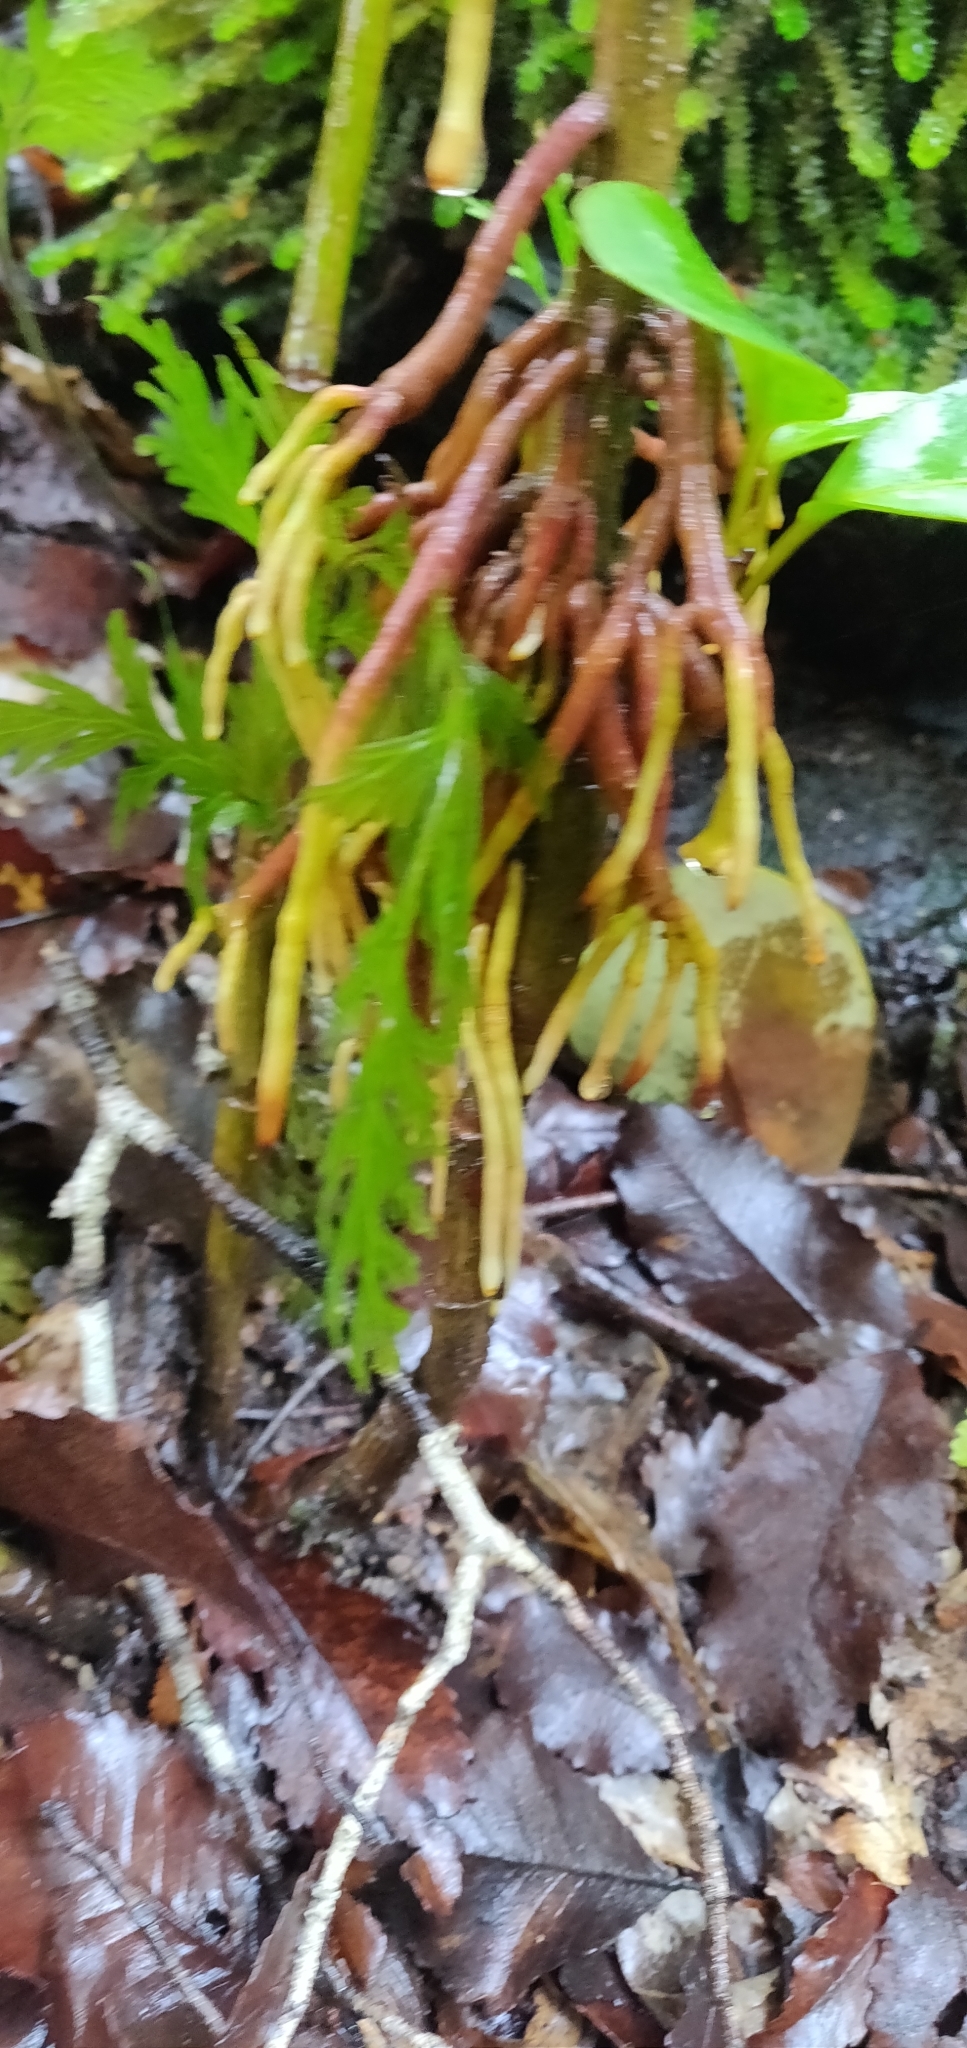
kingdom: Plantae
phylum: Tracheophyta
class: Magnoliopsida
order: Apiales
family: Griseliniaceae
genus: Griselinia
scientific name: Griselinia littoralis
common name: New zealand broadleaf
